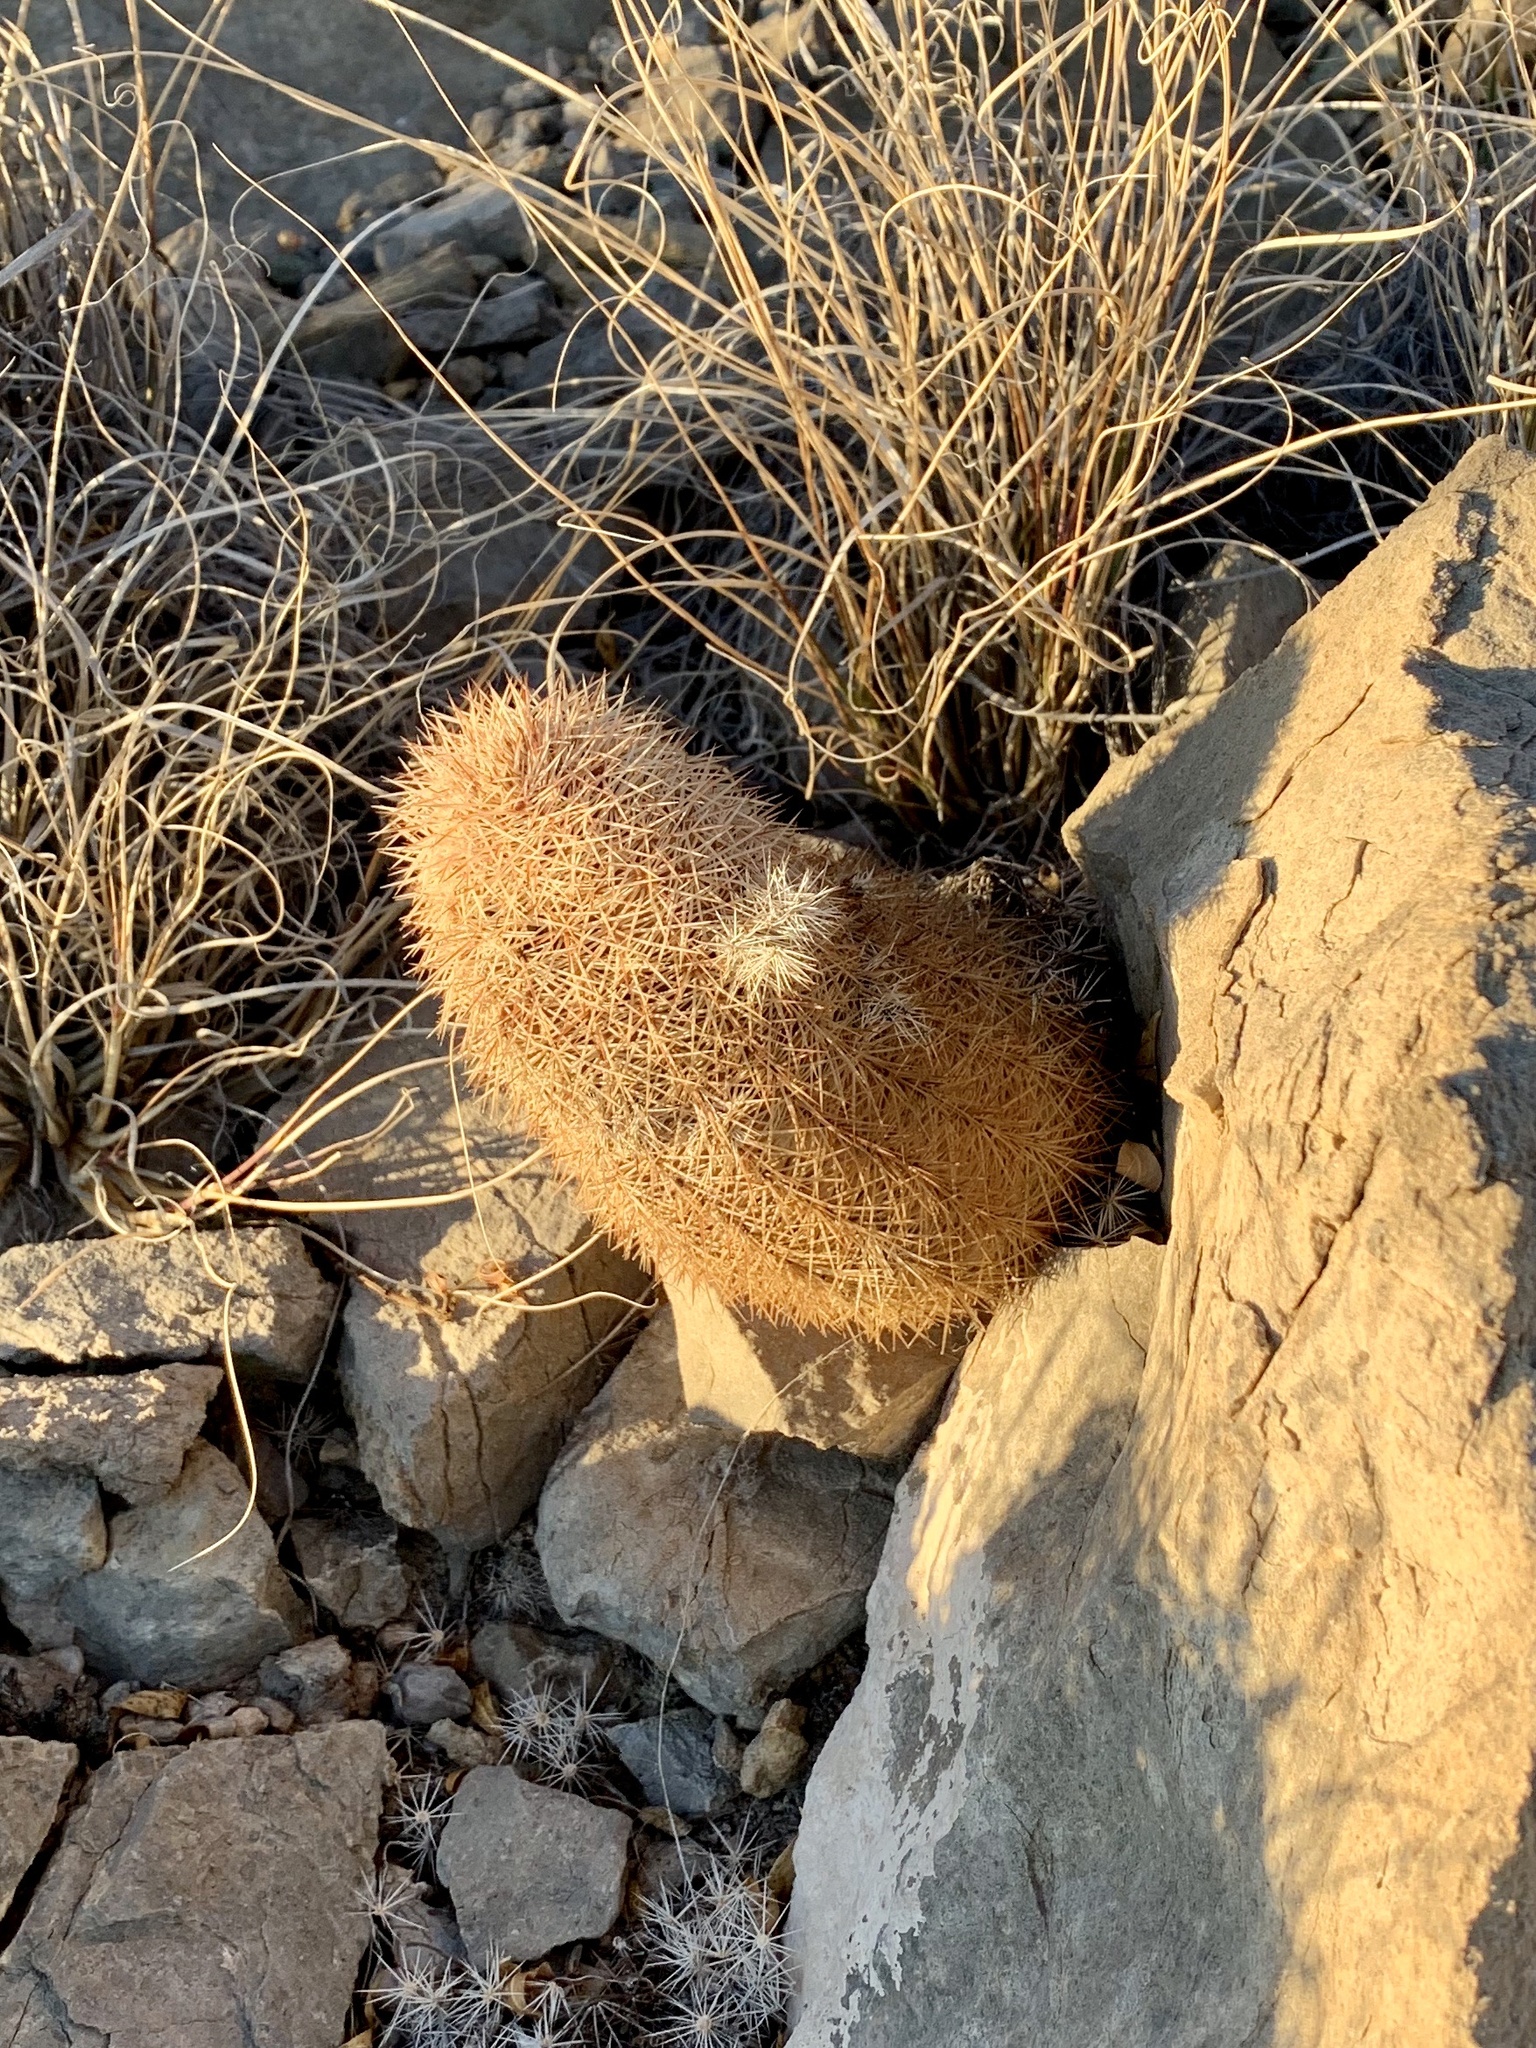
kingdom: Plantae
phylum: Tracheophyta
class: Magnoliopsida
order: Caryophyllales
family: Cactaceae
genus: Echinocereus
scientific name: Echinocereus dasyacanthus
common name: Spiny hedgehog cactus
